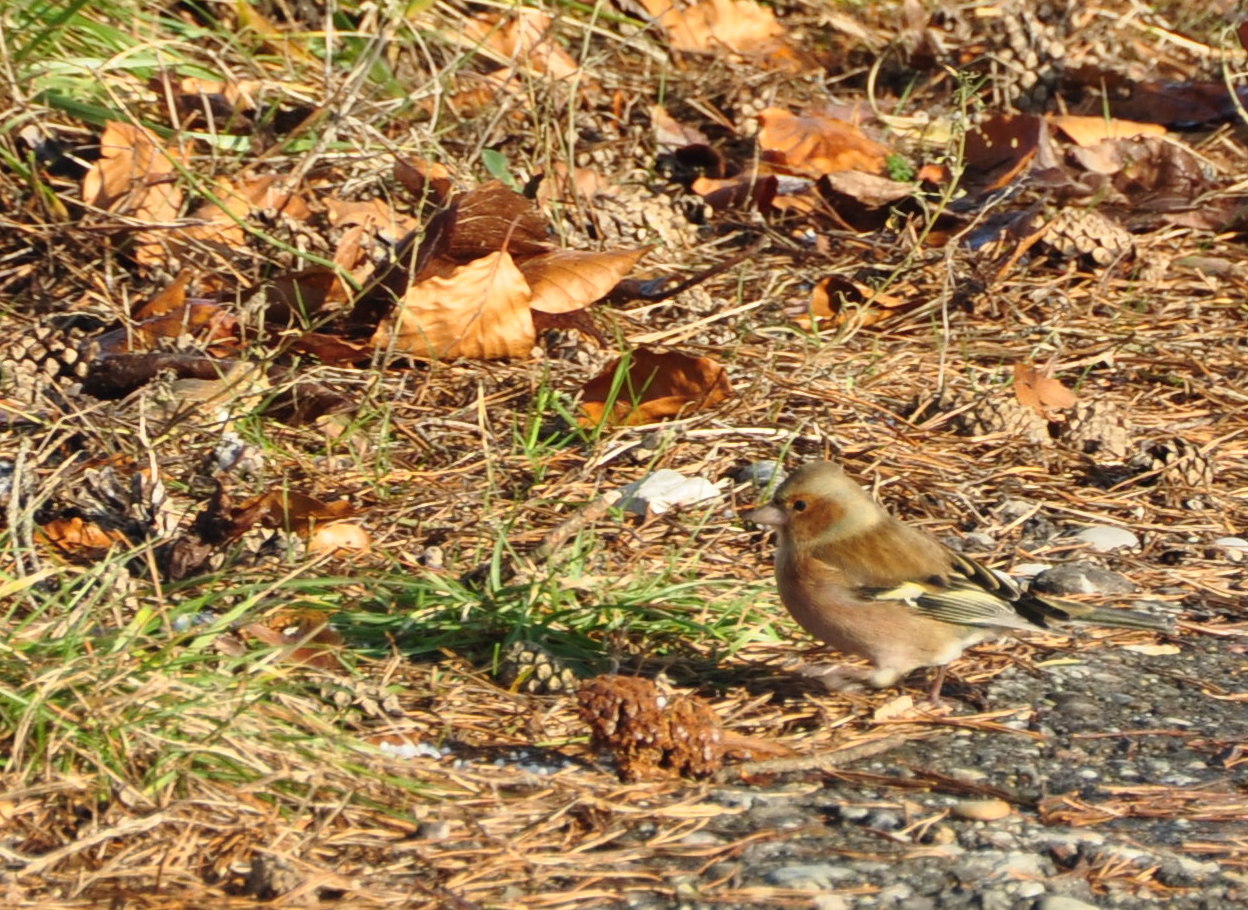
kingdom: Animalia
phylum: Chordata
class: Aves
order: Passeriformes
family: Fringillidae
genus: Fringilla
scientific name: Fringilla coelebs
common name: Common chaffinch
